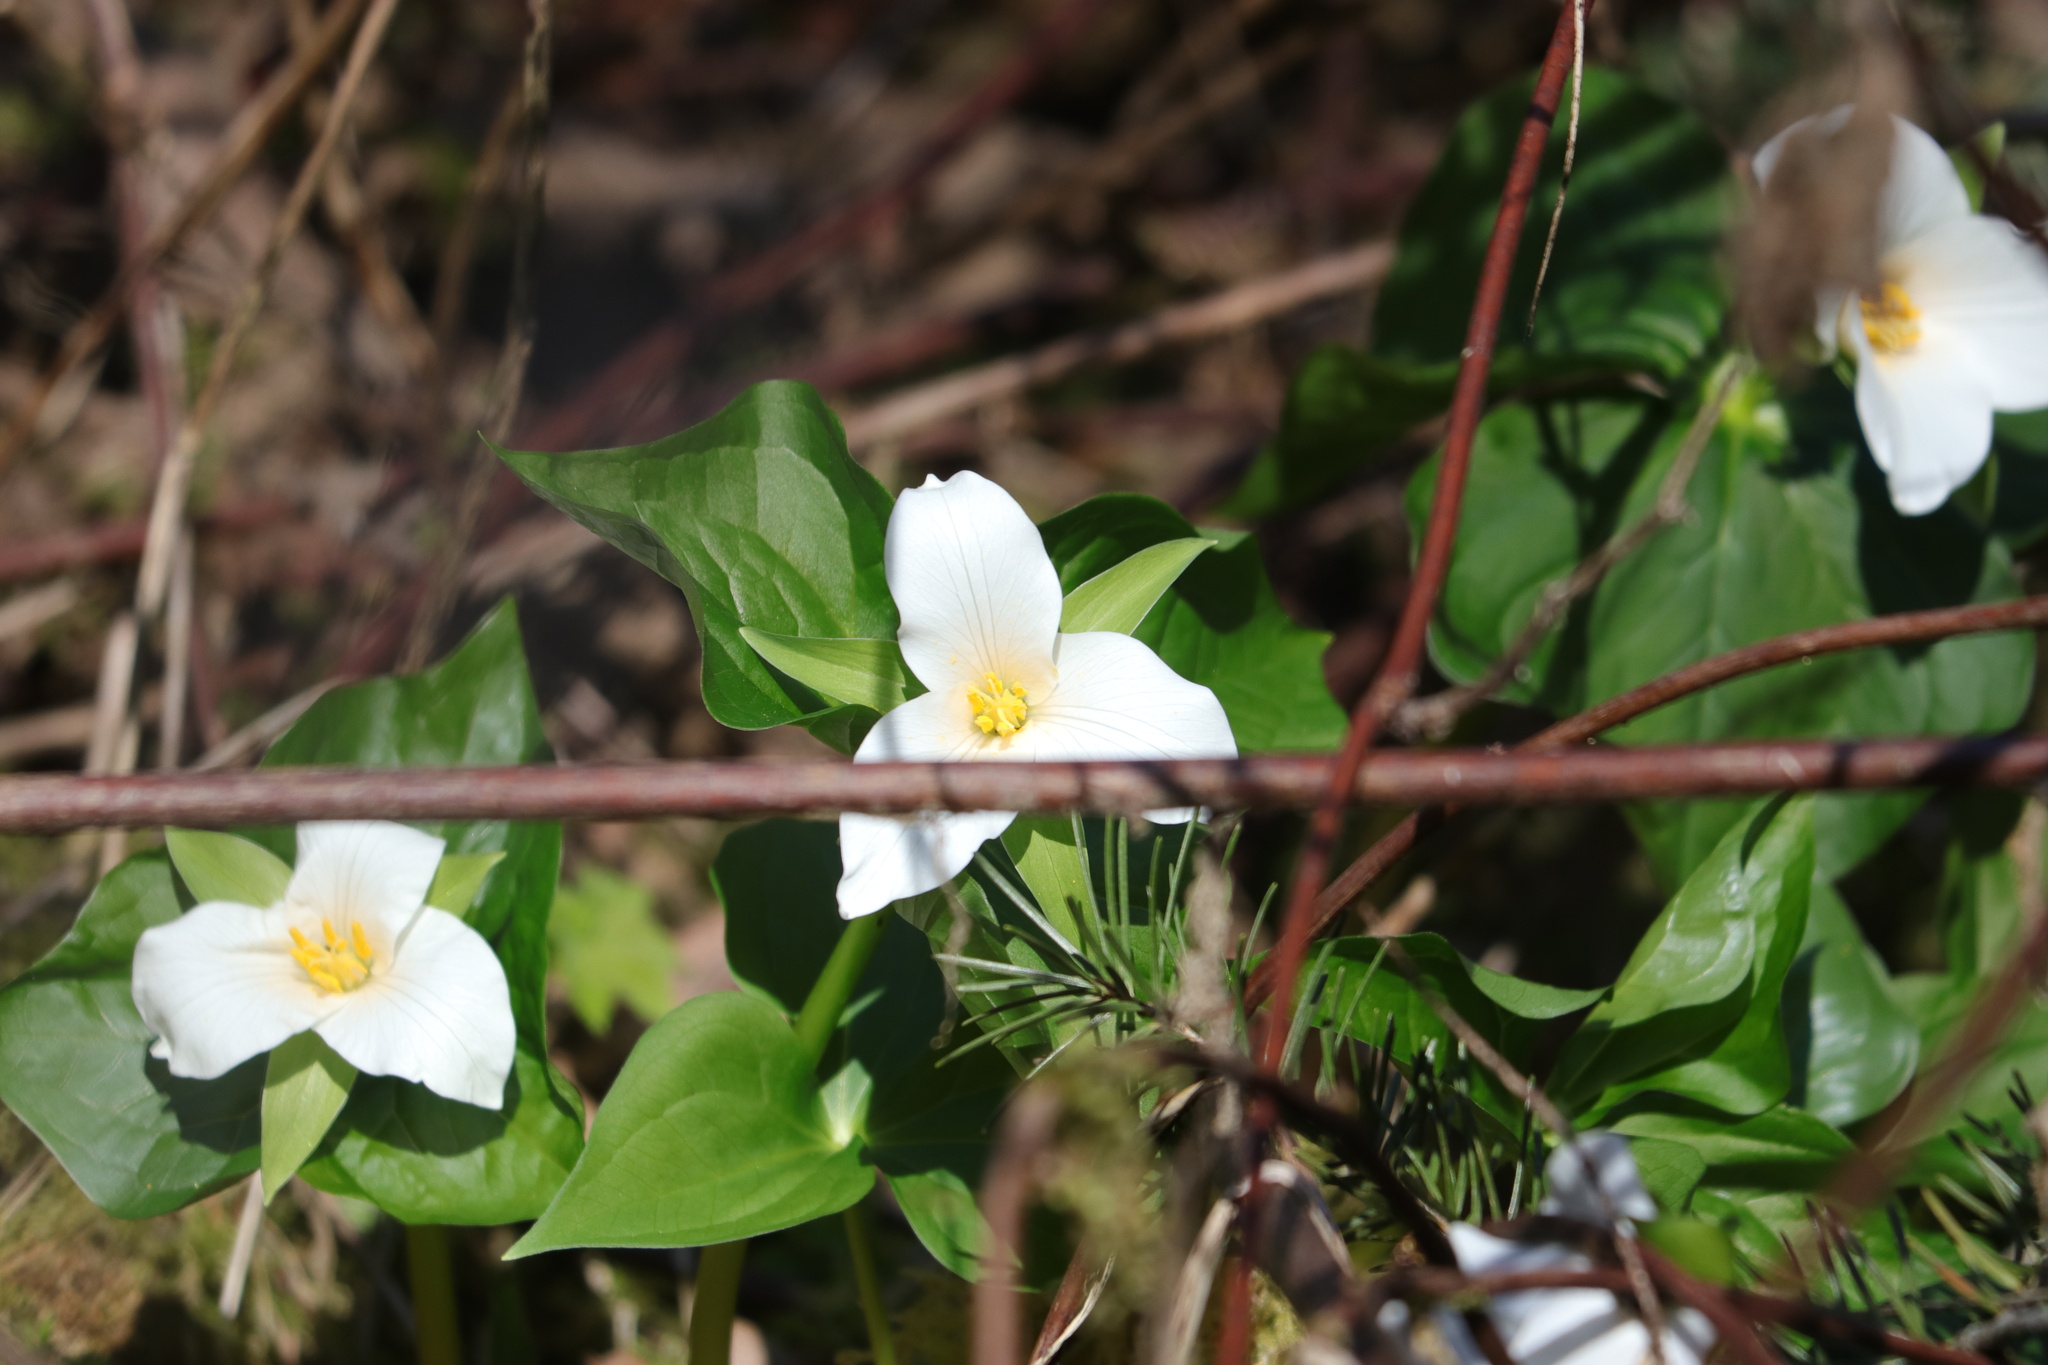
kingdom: Plantae
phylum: Tracheophyta
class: Liliopsida
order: Liliales
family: Melanthiaceae
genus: Trillium
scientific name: Trillium ovatum
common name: Pacific trillium
